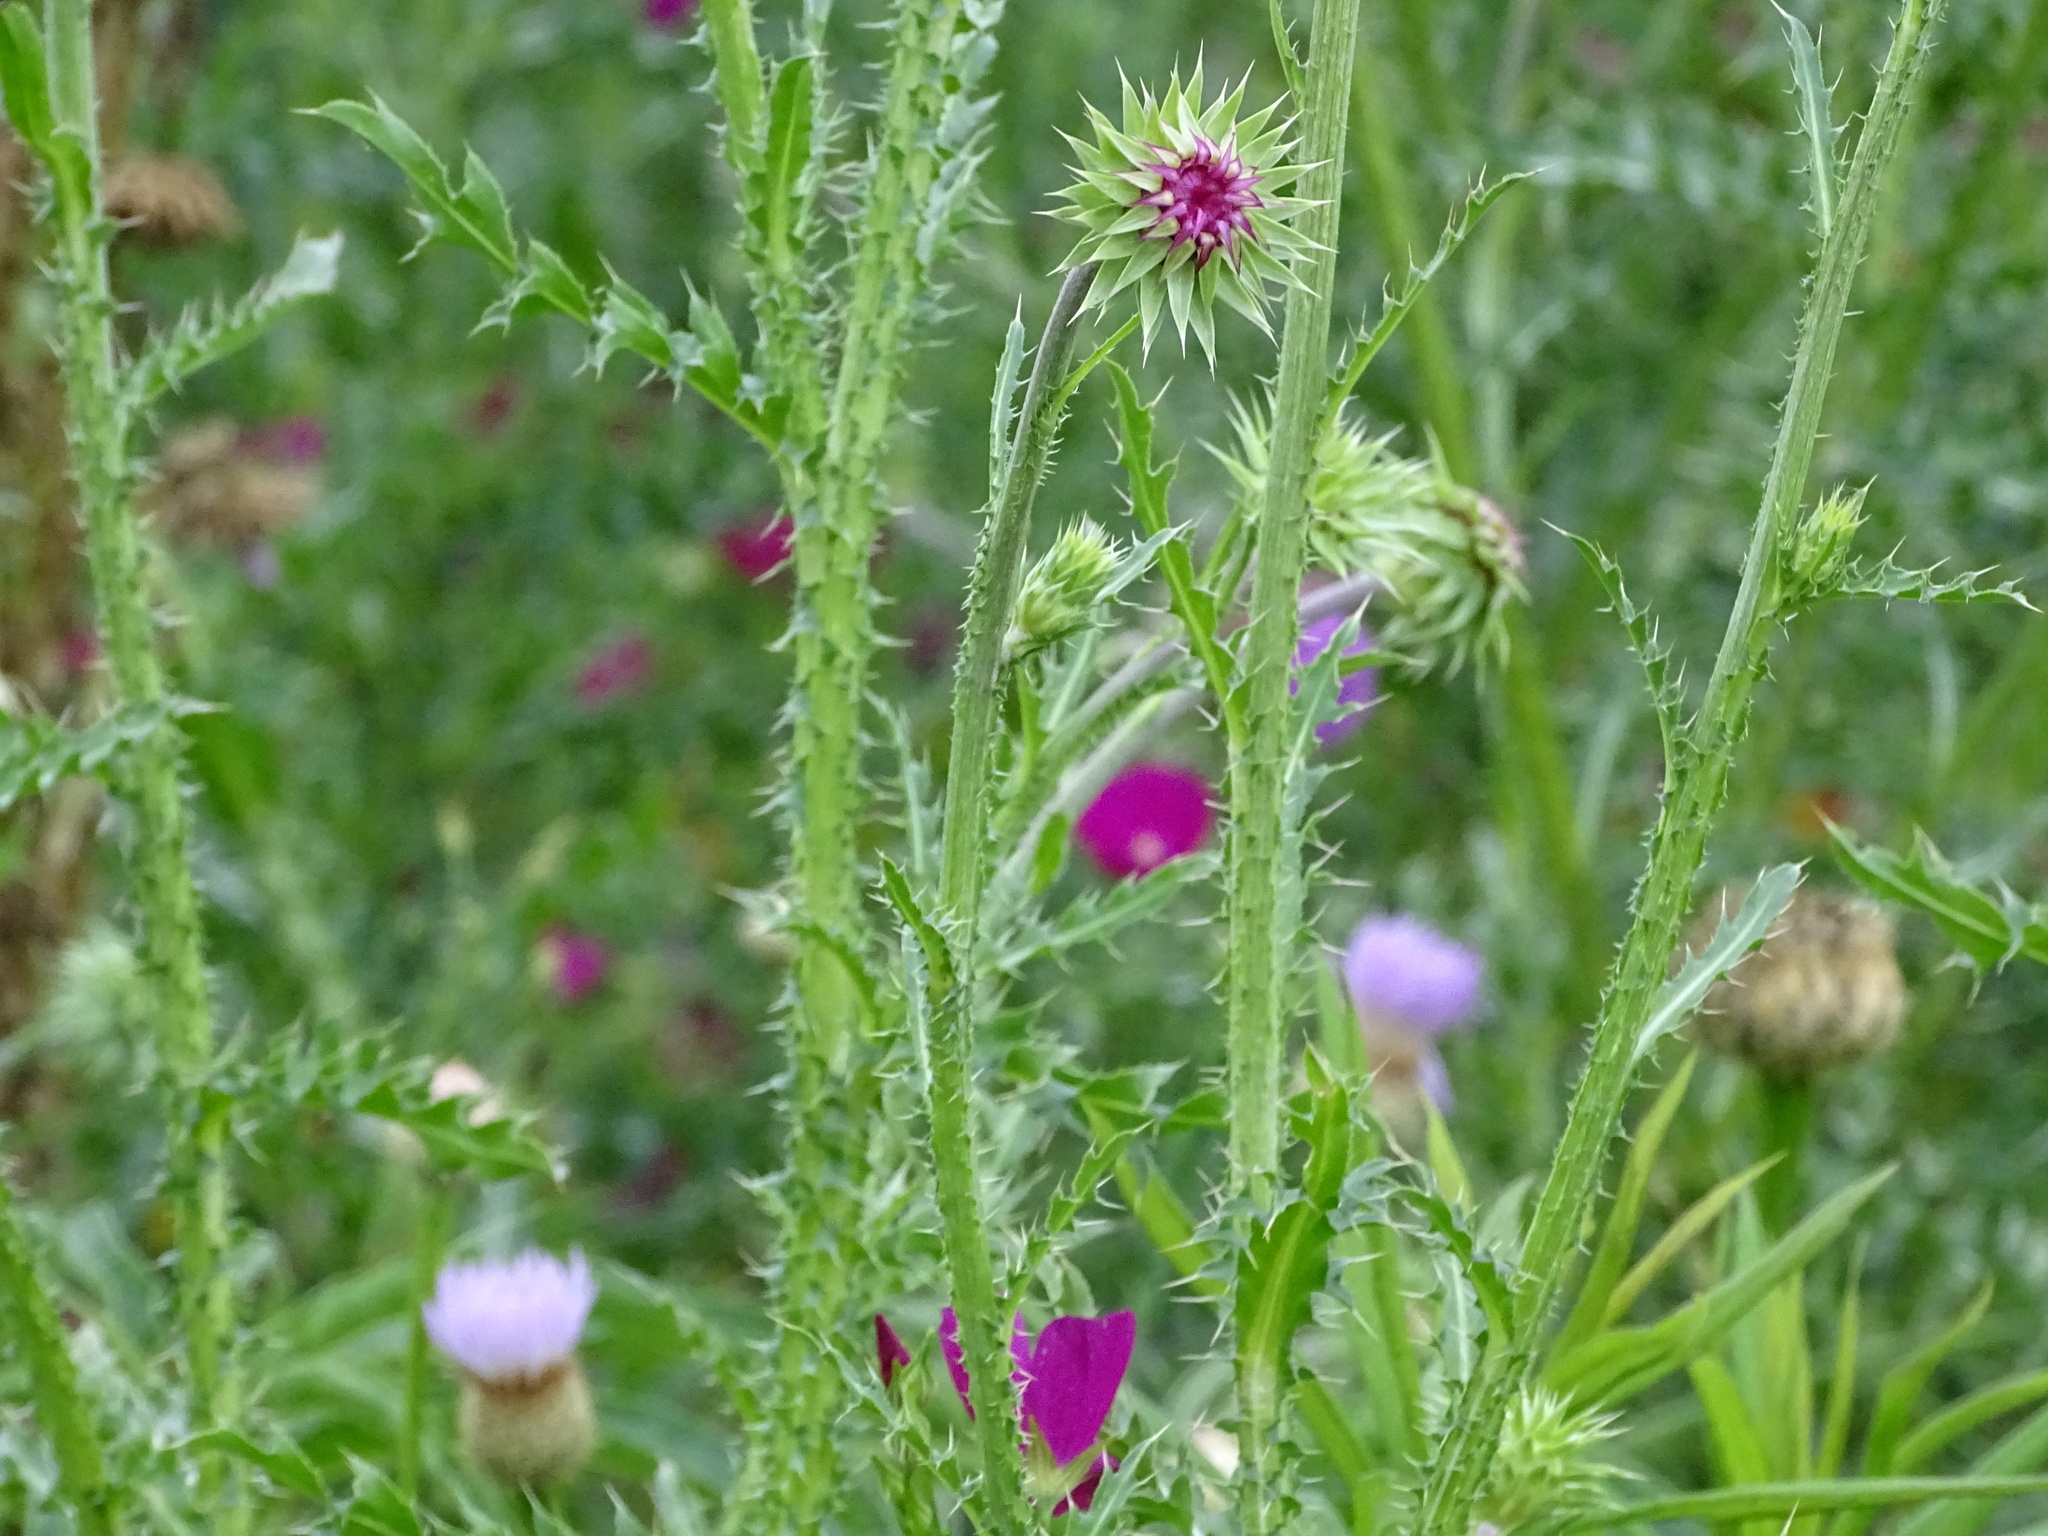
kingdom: Plantae
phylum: Tracheophyta
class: Magnoliopsida
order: Asterales
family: Asteraceae
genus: Carduus
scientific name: Carduus nutans
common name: Musk thistle
